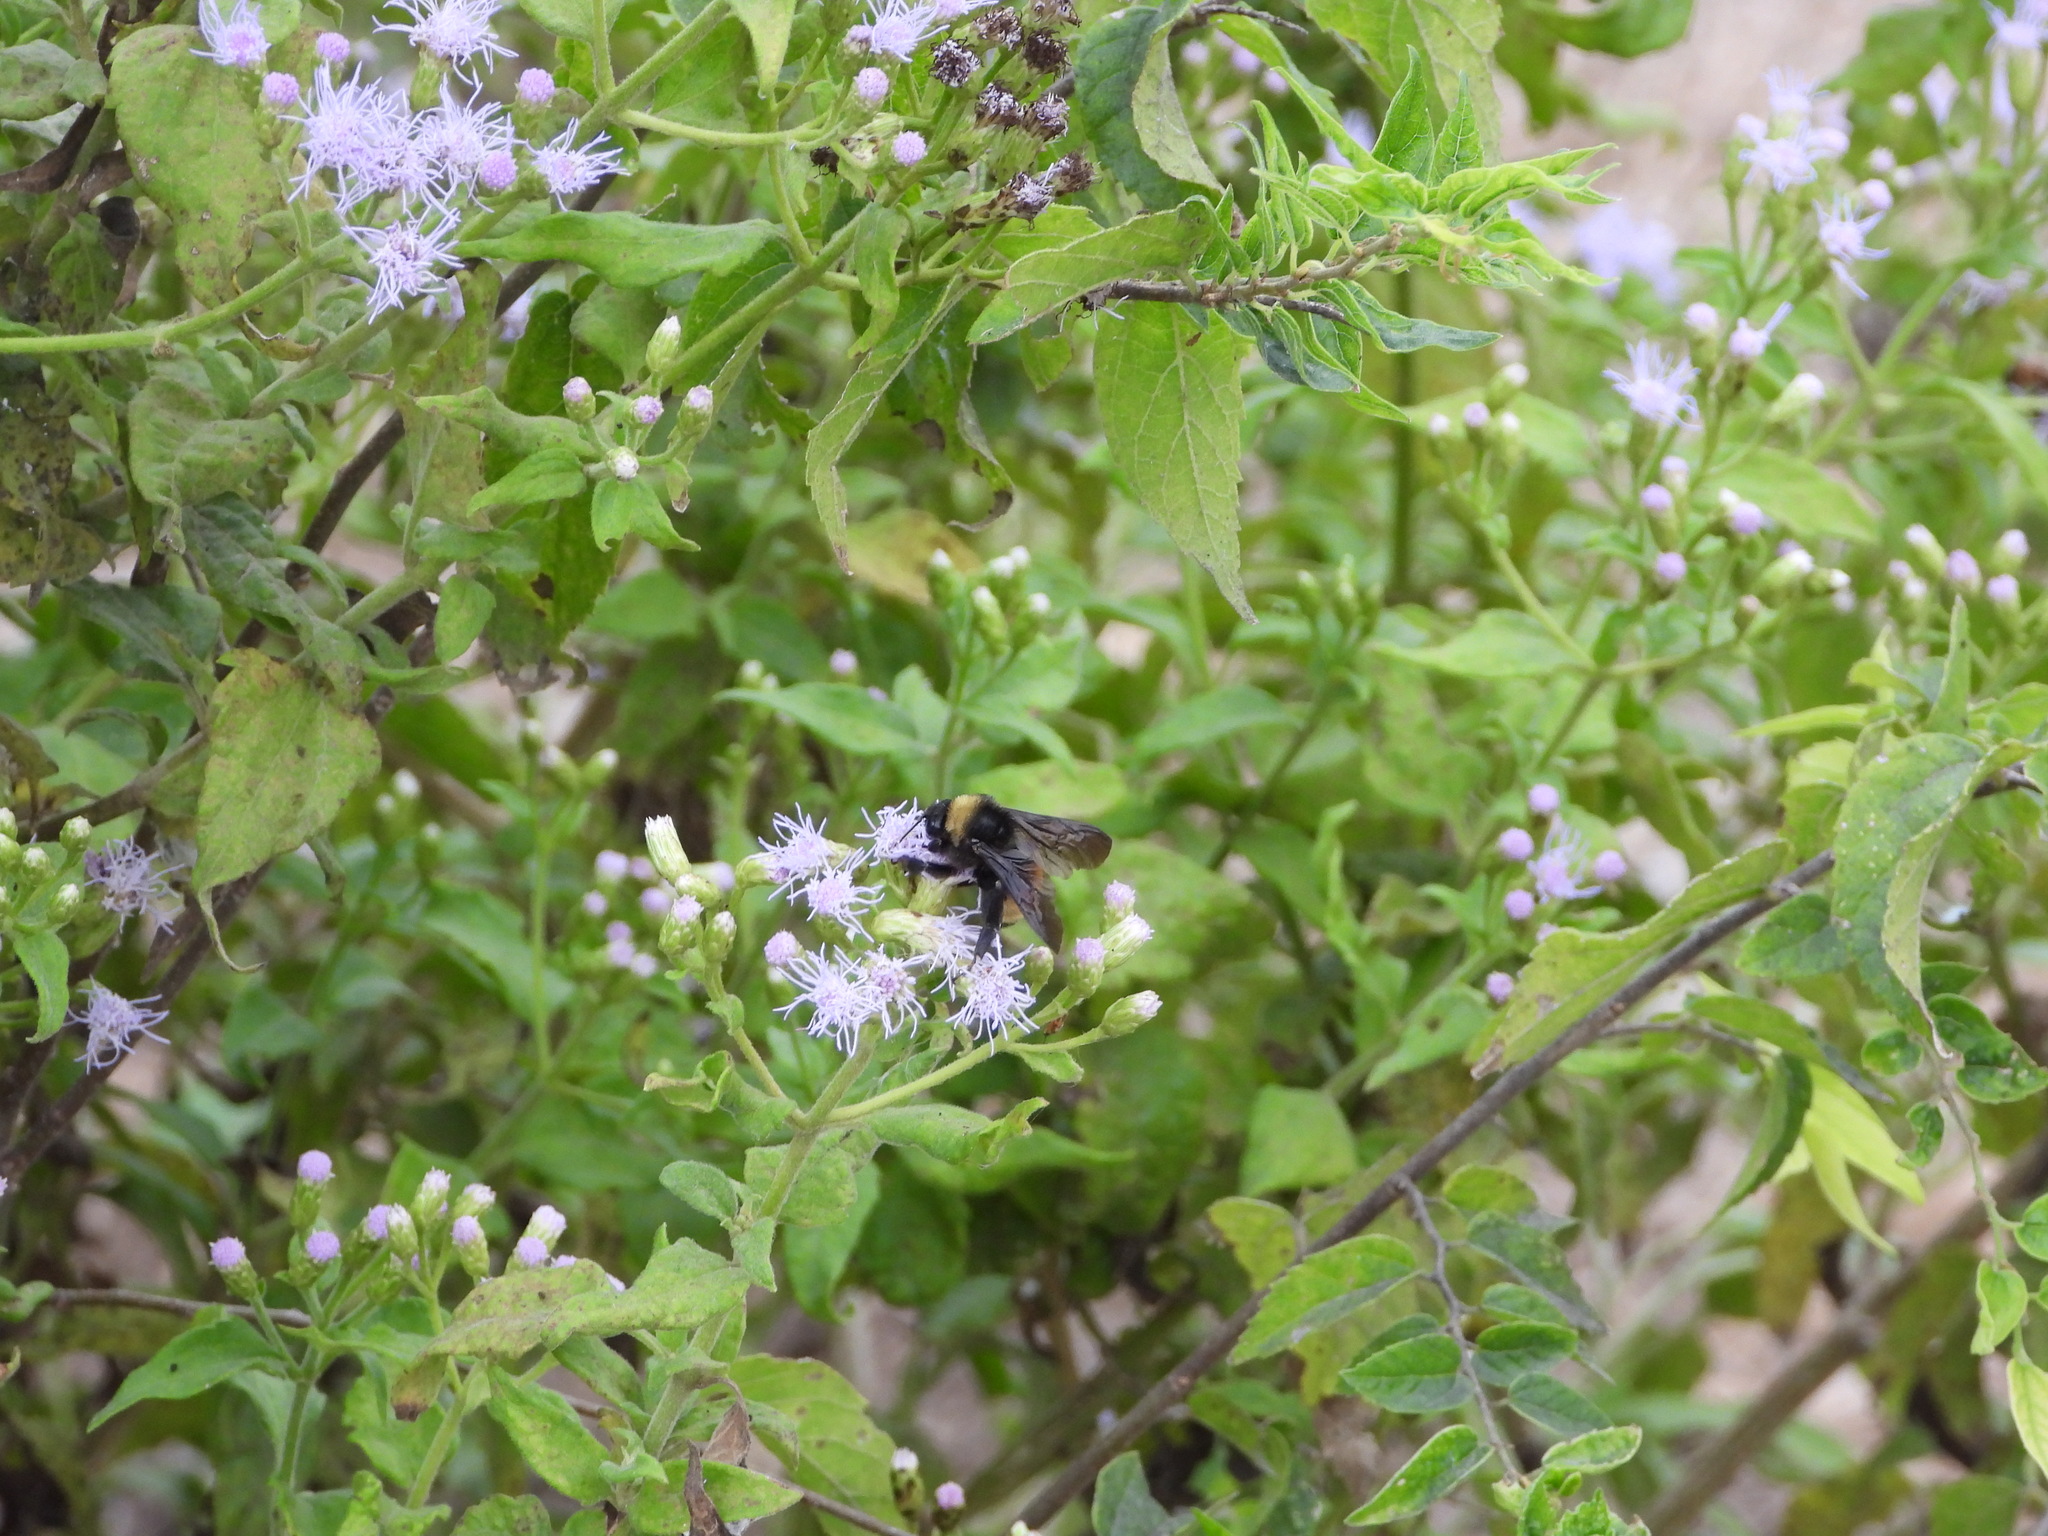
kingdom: Animalia
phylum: Arthropoda
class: Insecta
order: Hymenoptera
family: Apidae
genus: Bombus
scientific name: Bombus pensylvanicus
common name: Bumble bee
